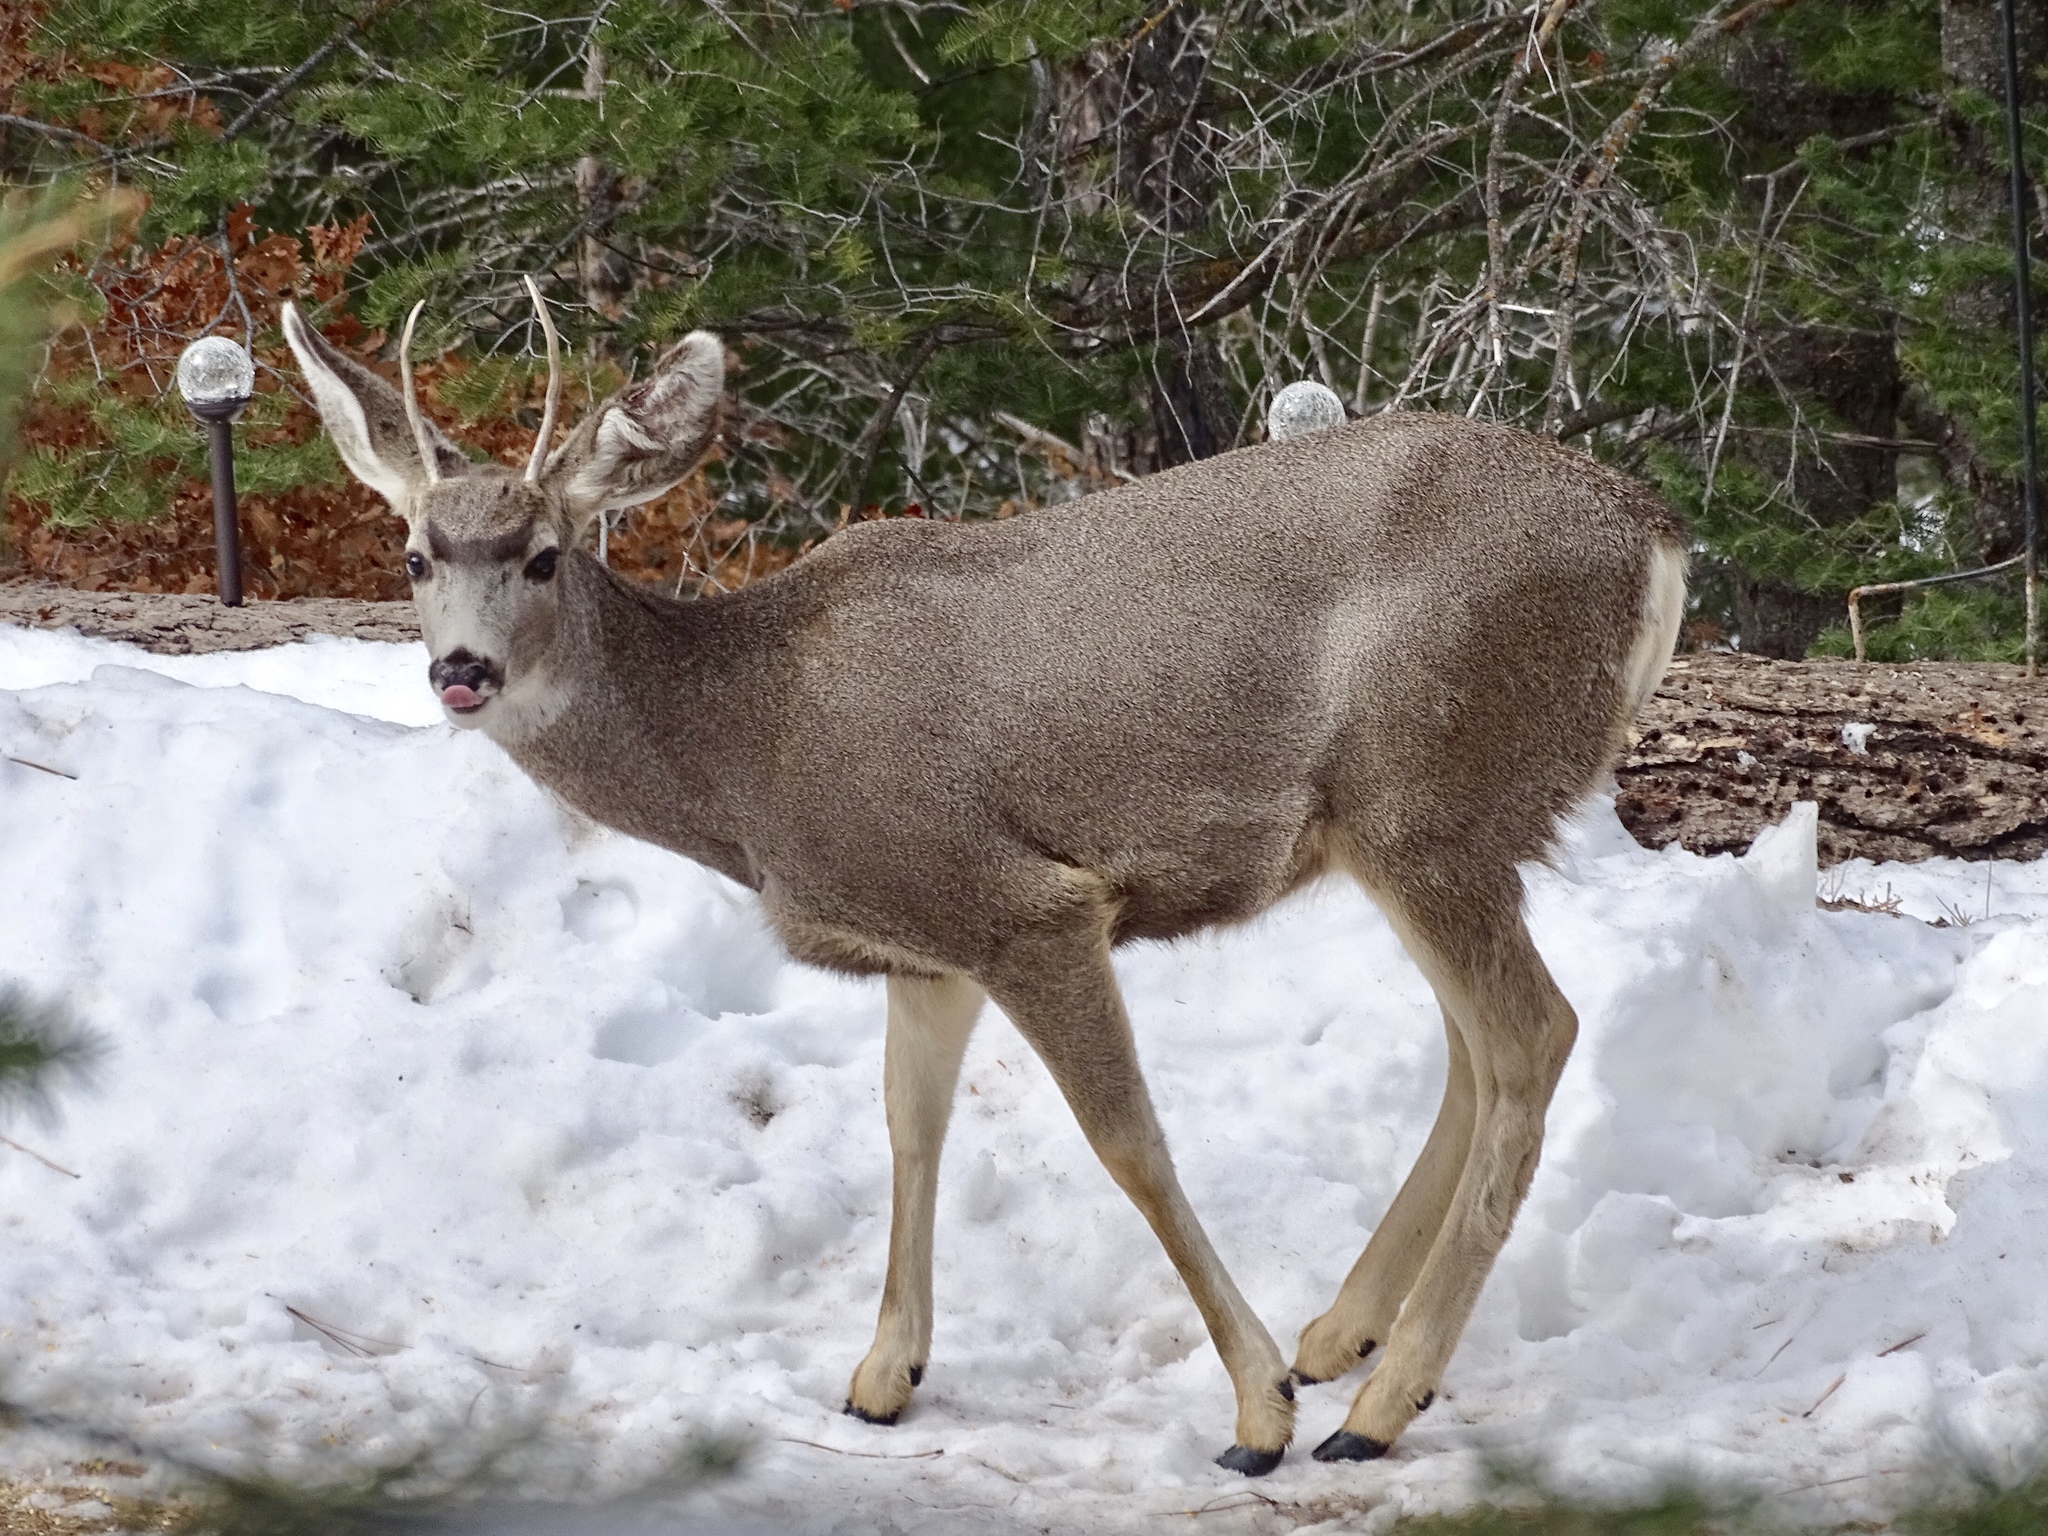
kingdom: Animalia
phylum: Chordata
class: Mammalia
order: Artiodactyla
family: Cervidae
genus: Odocoileus
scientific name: Odocoileus hemionus
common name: Mule deer
